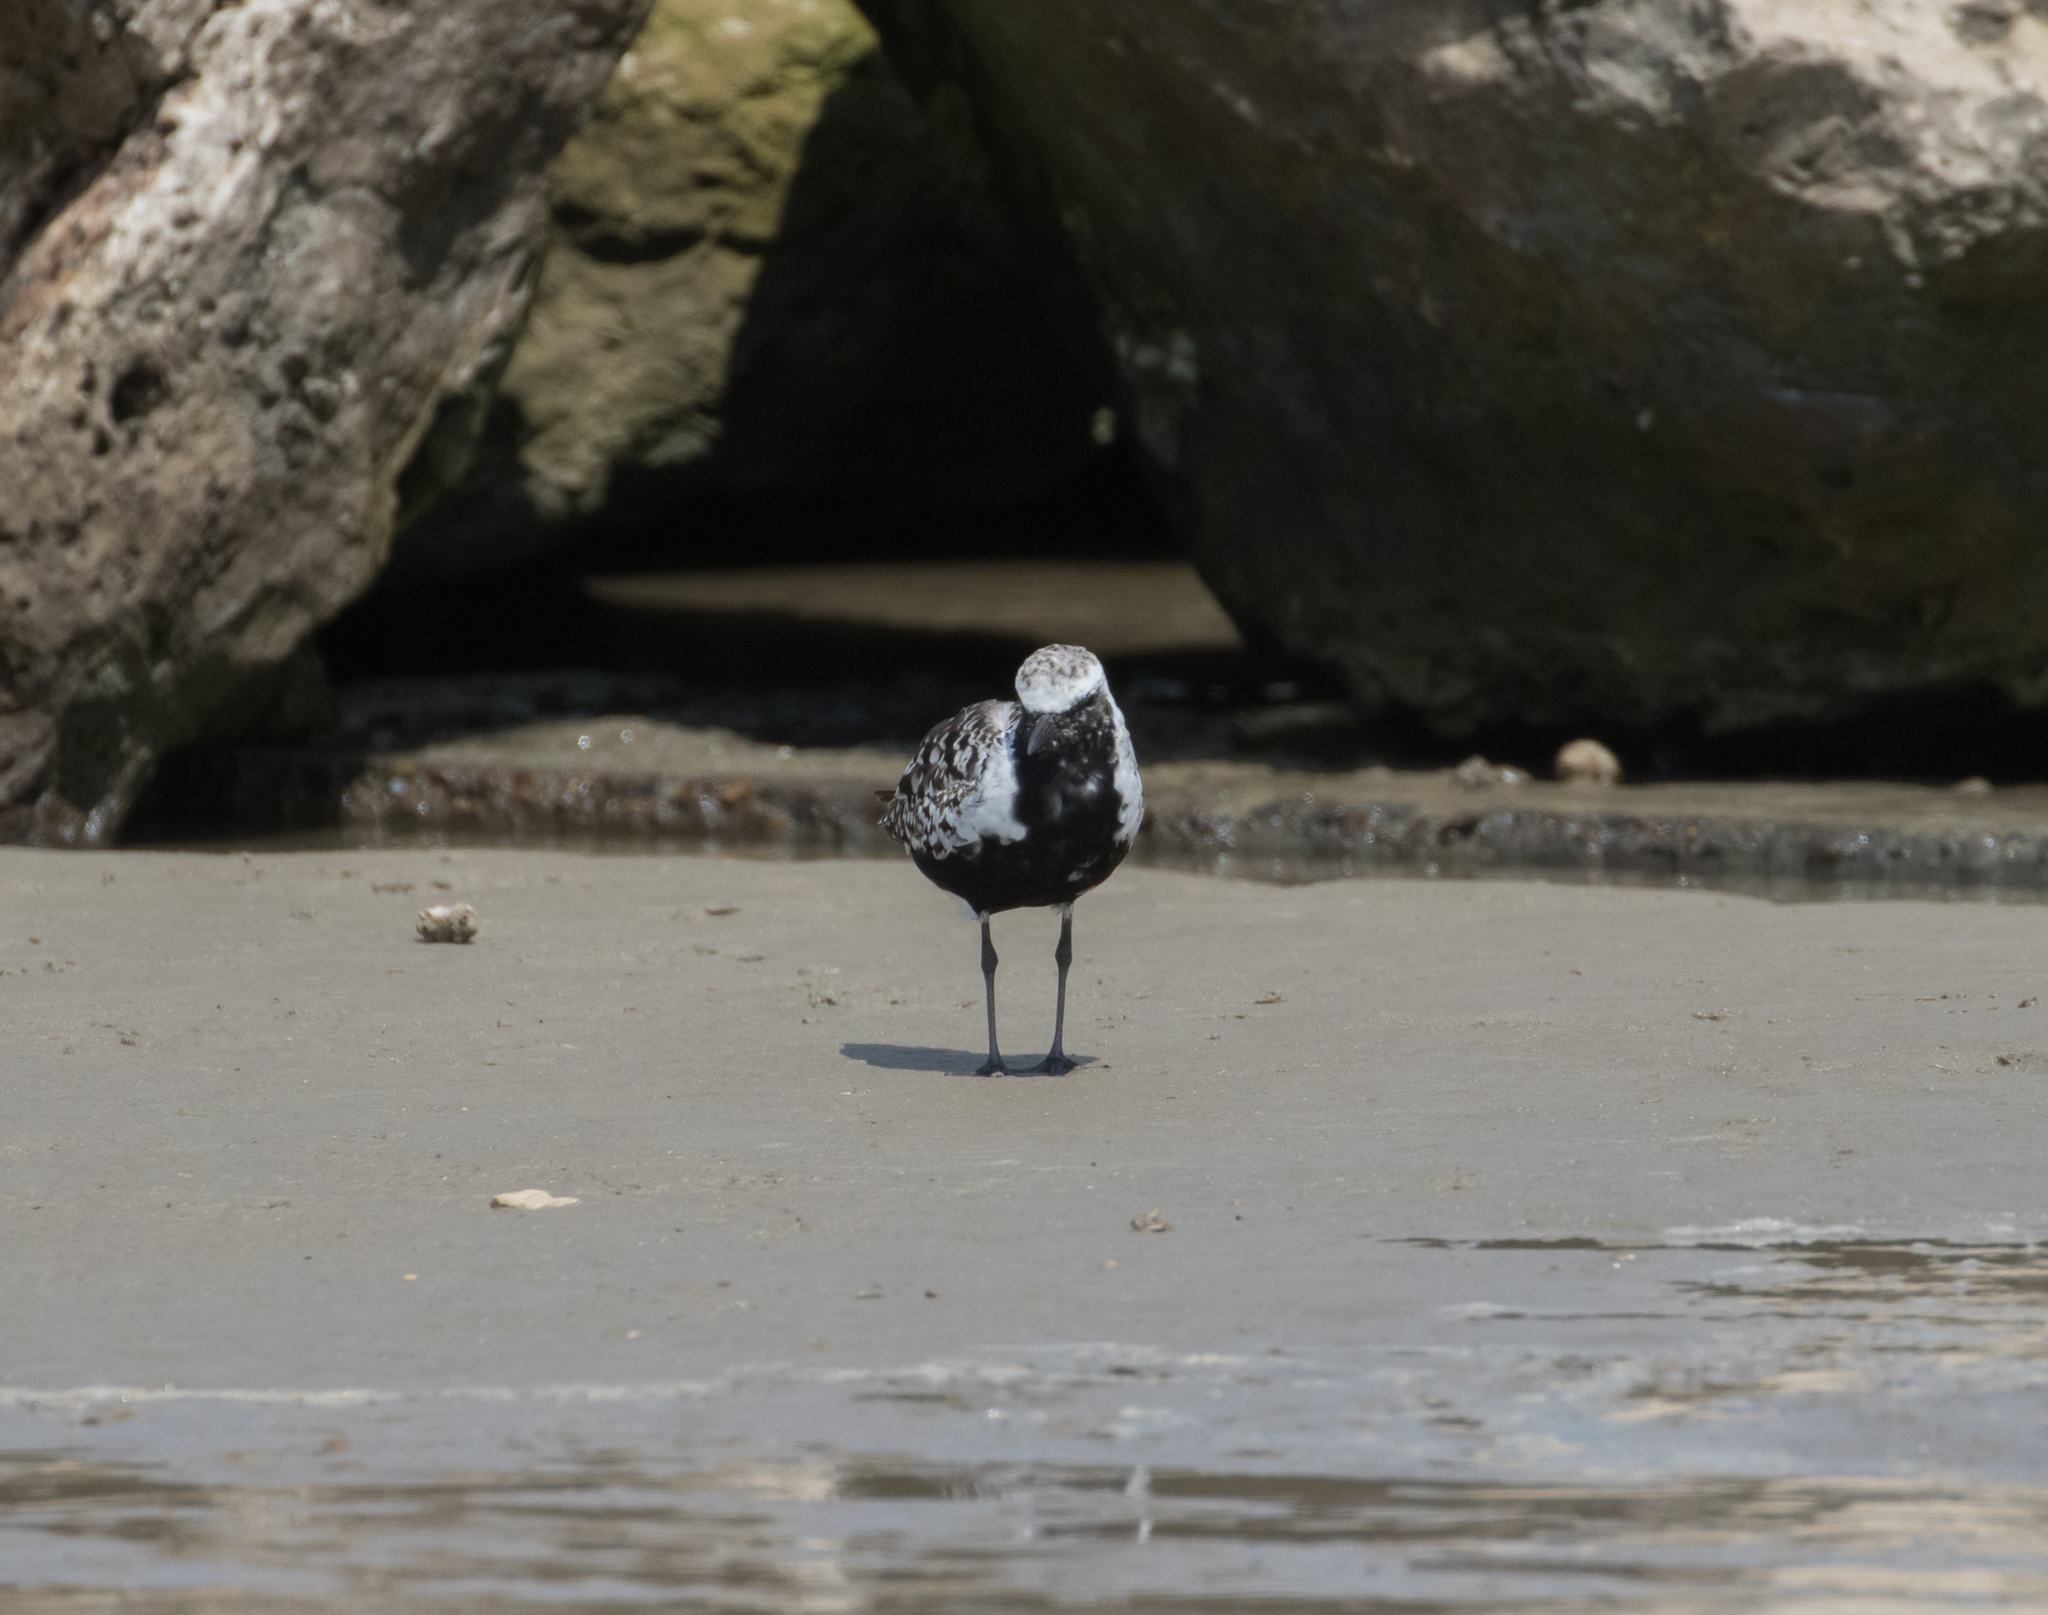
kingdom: Animalia
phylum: Chordata
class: Aves
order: Charadriiformes
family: Charadriidae
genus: Pluvialis
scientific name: Pluvialis squatarola
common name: Grey plover
